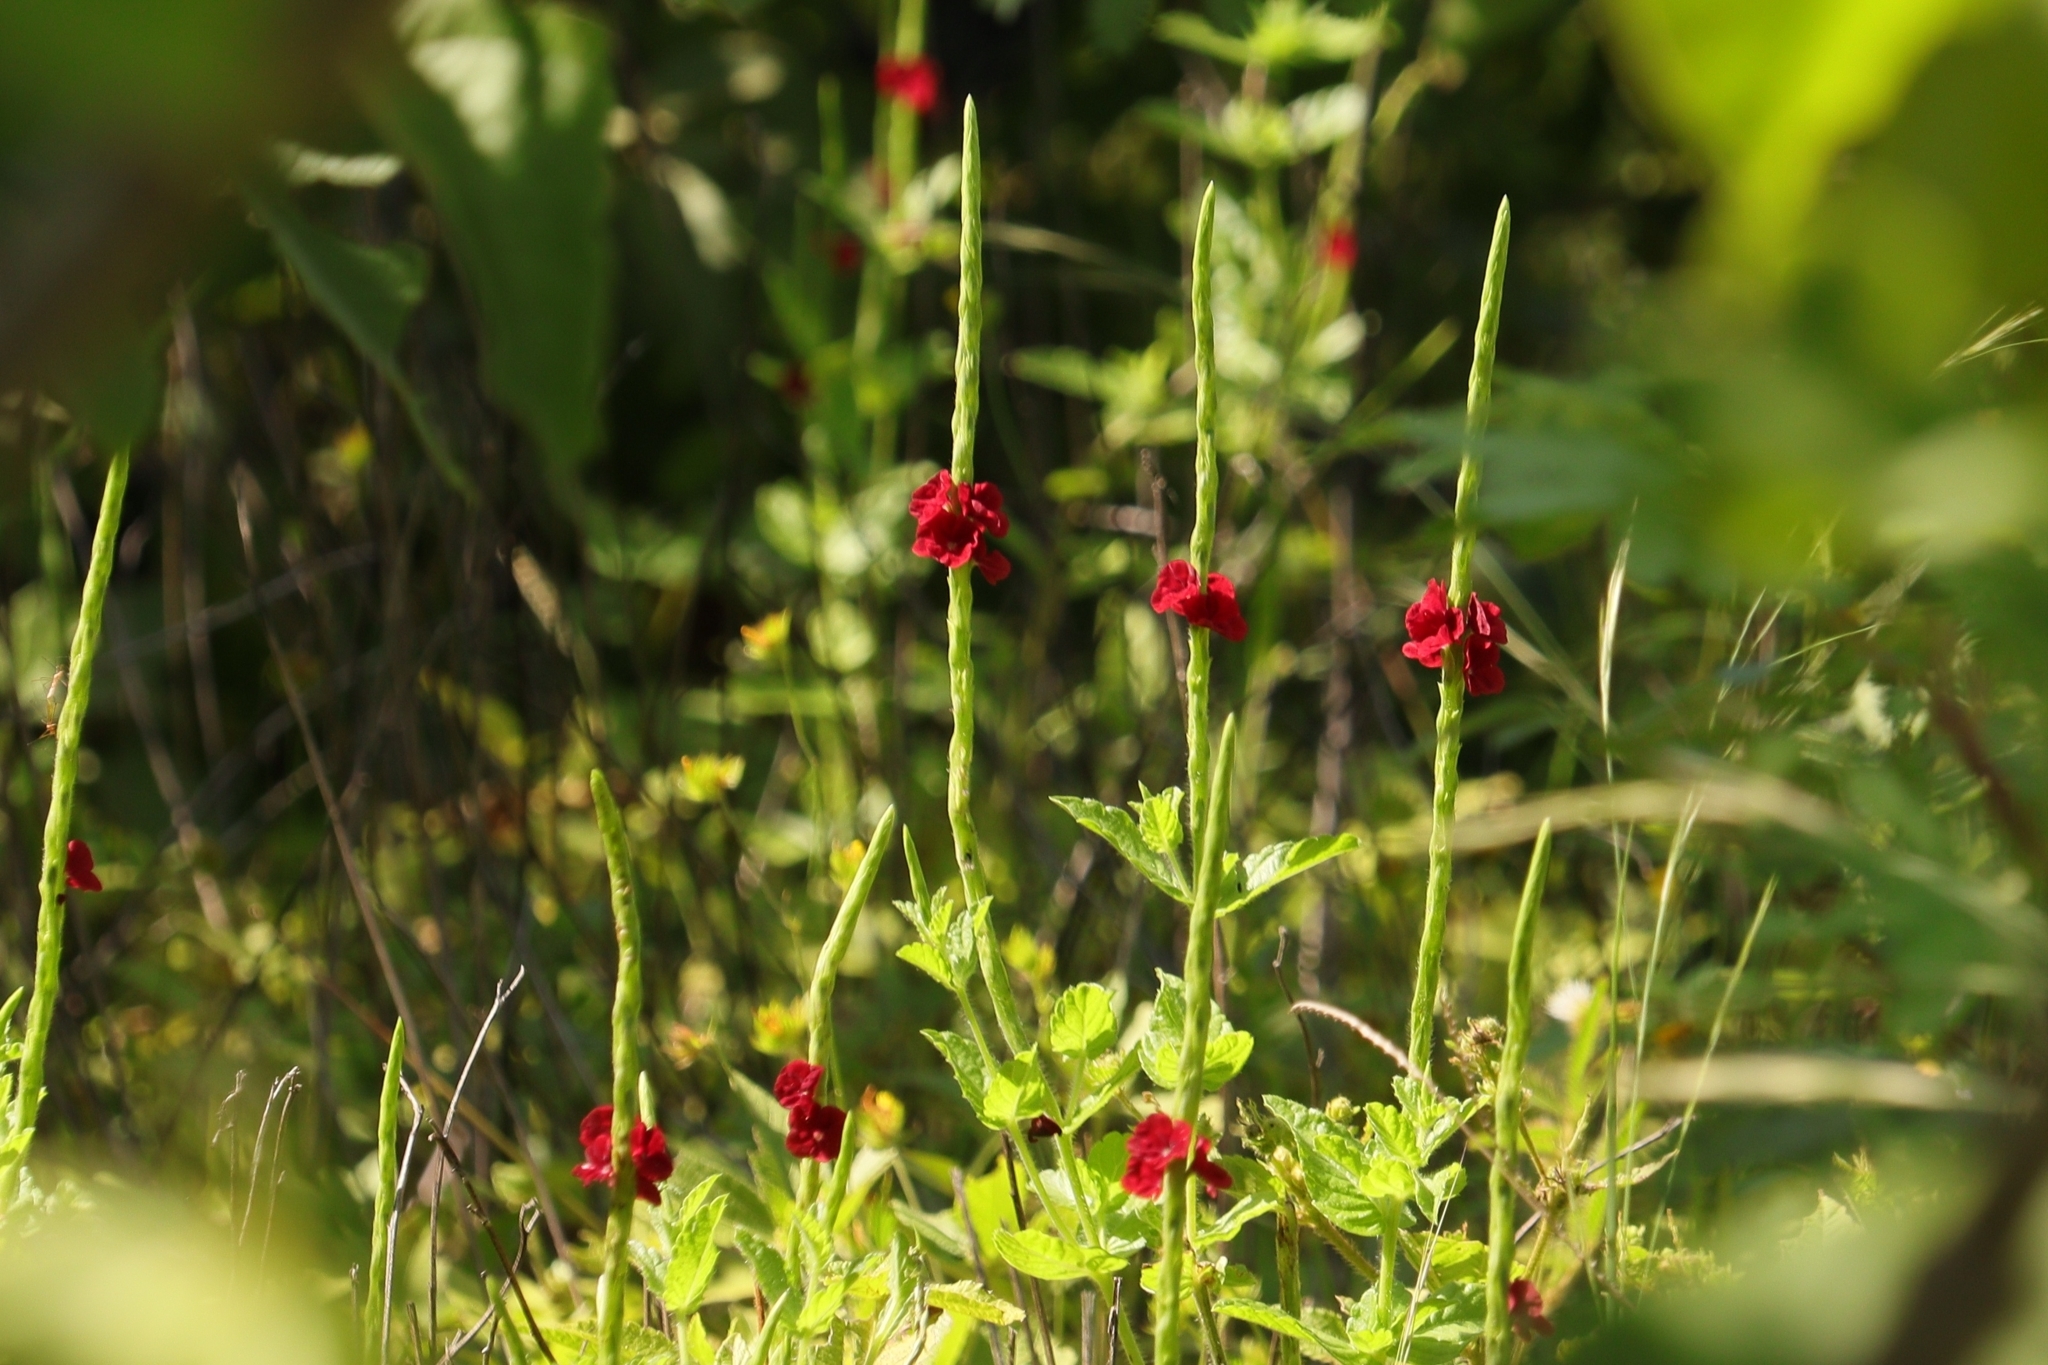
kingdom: Plantae
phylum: Tracheophyta
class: Magnoliopsida
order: Lamiales
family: Verbenaceae
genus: Stachytarpheta
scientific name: Stachytarpheta sessilis
